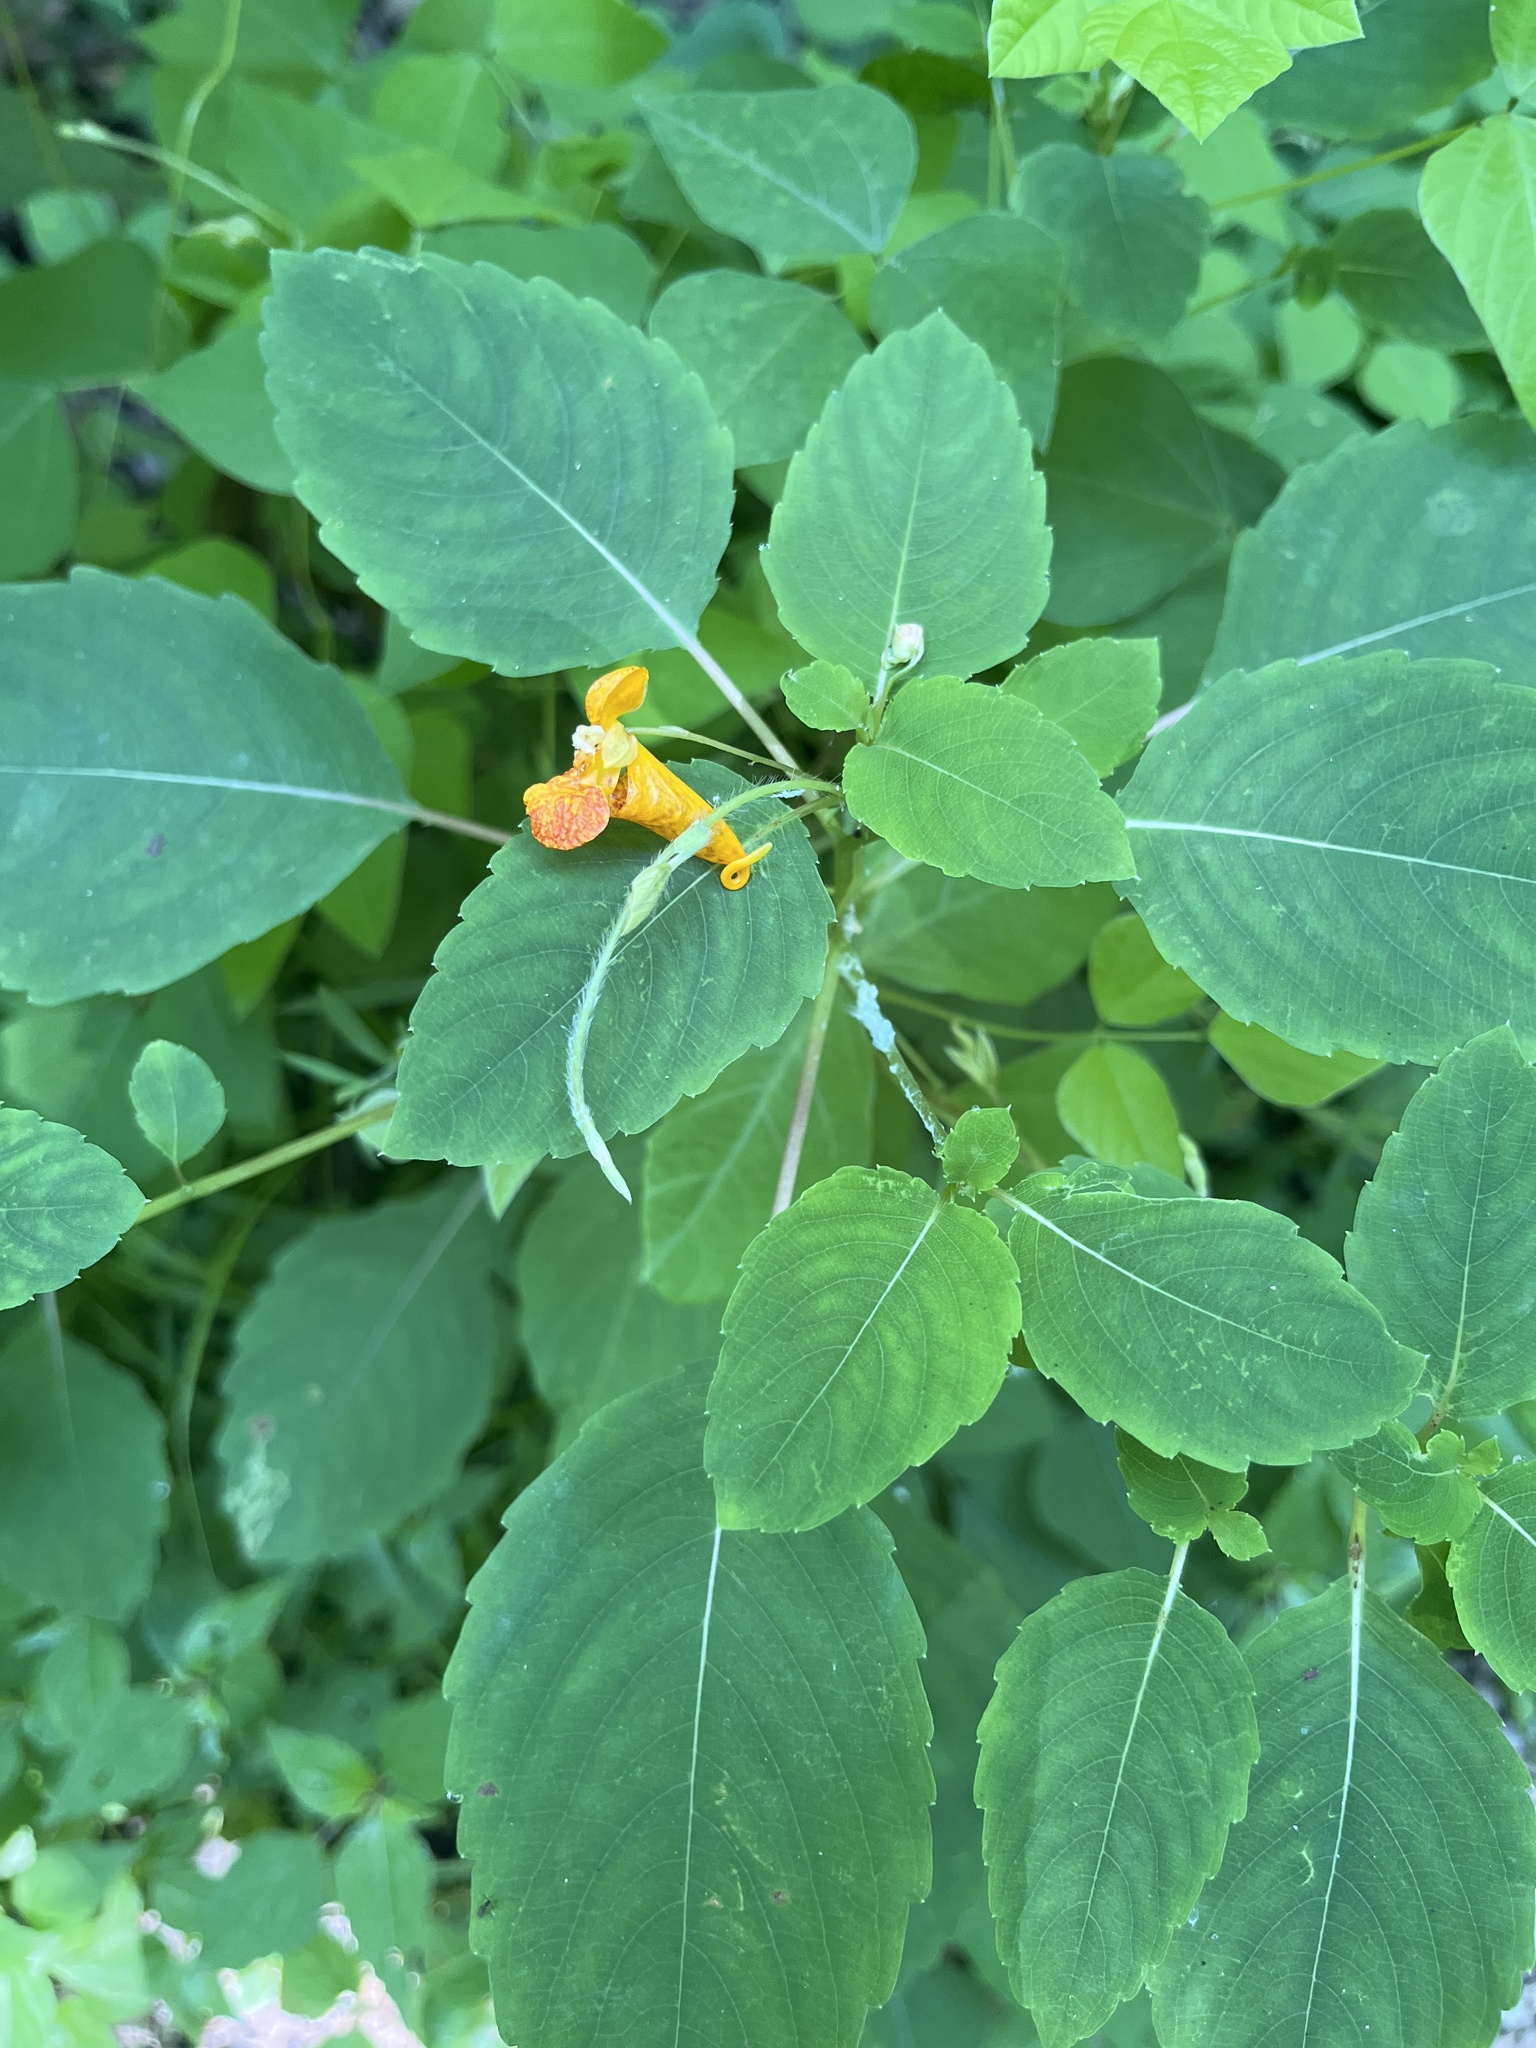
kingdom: Plantae
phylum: Tracheophyta
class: Magnoliopsida
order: Ericales
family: Balsaminaceae
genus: Impatiens
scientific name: Impatiens capensis
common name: Orange balsam
